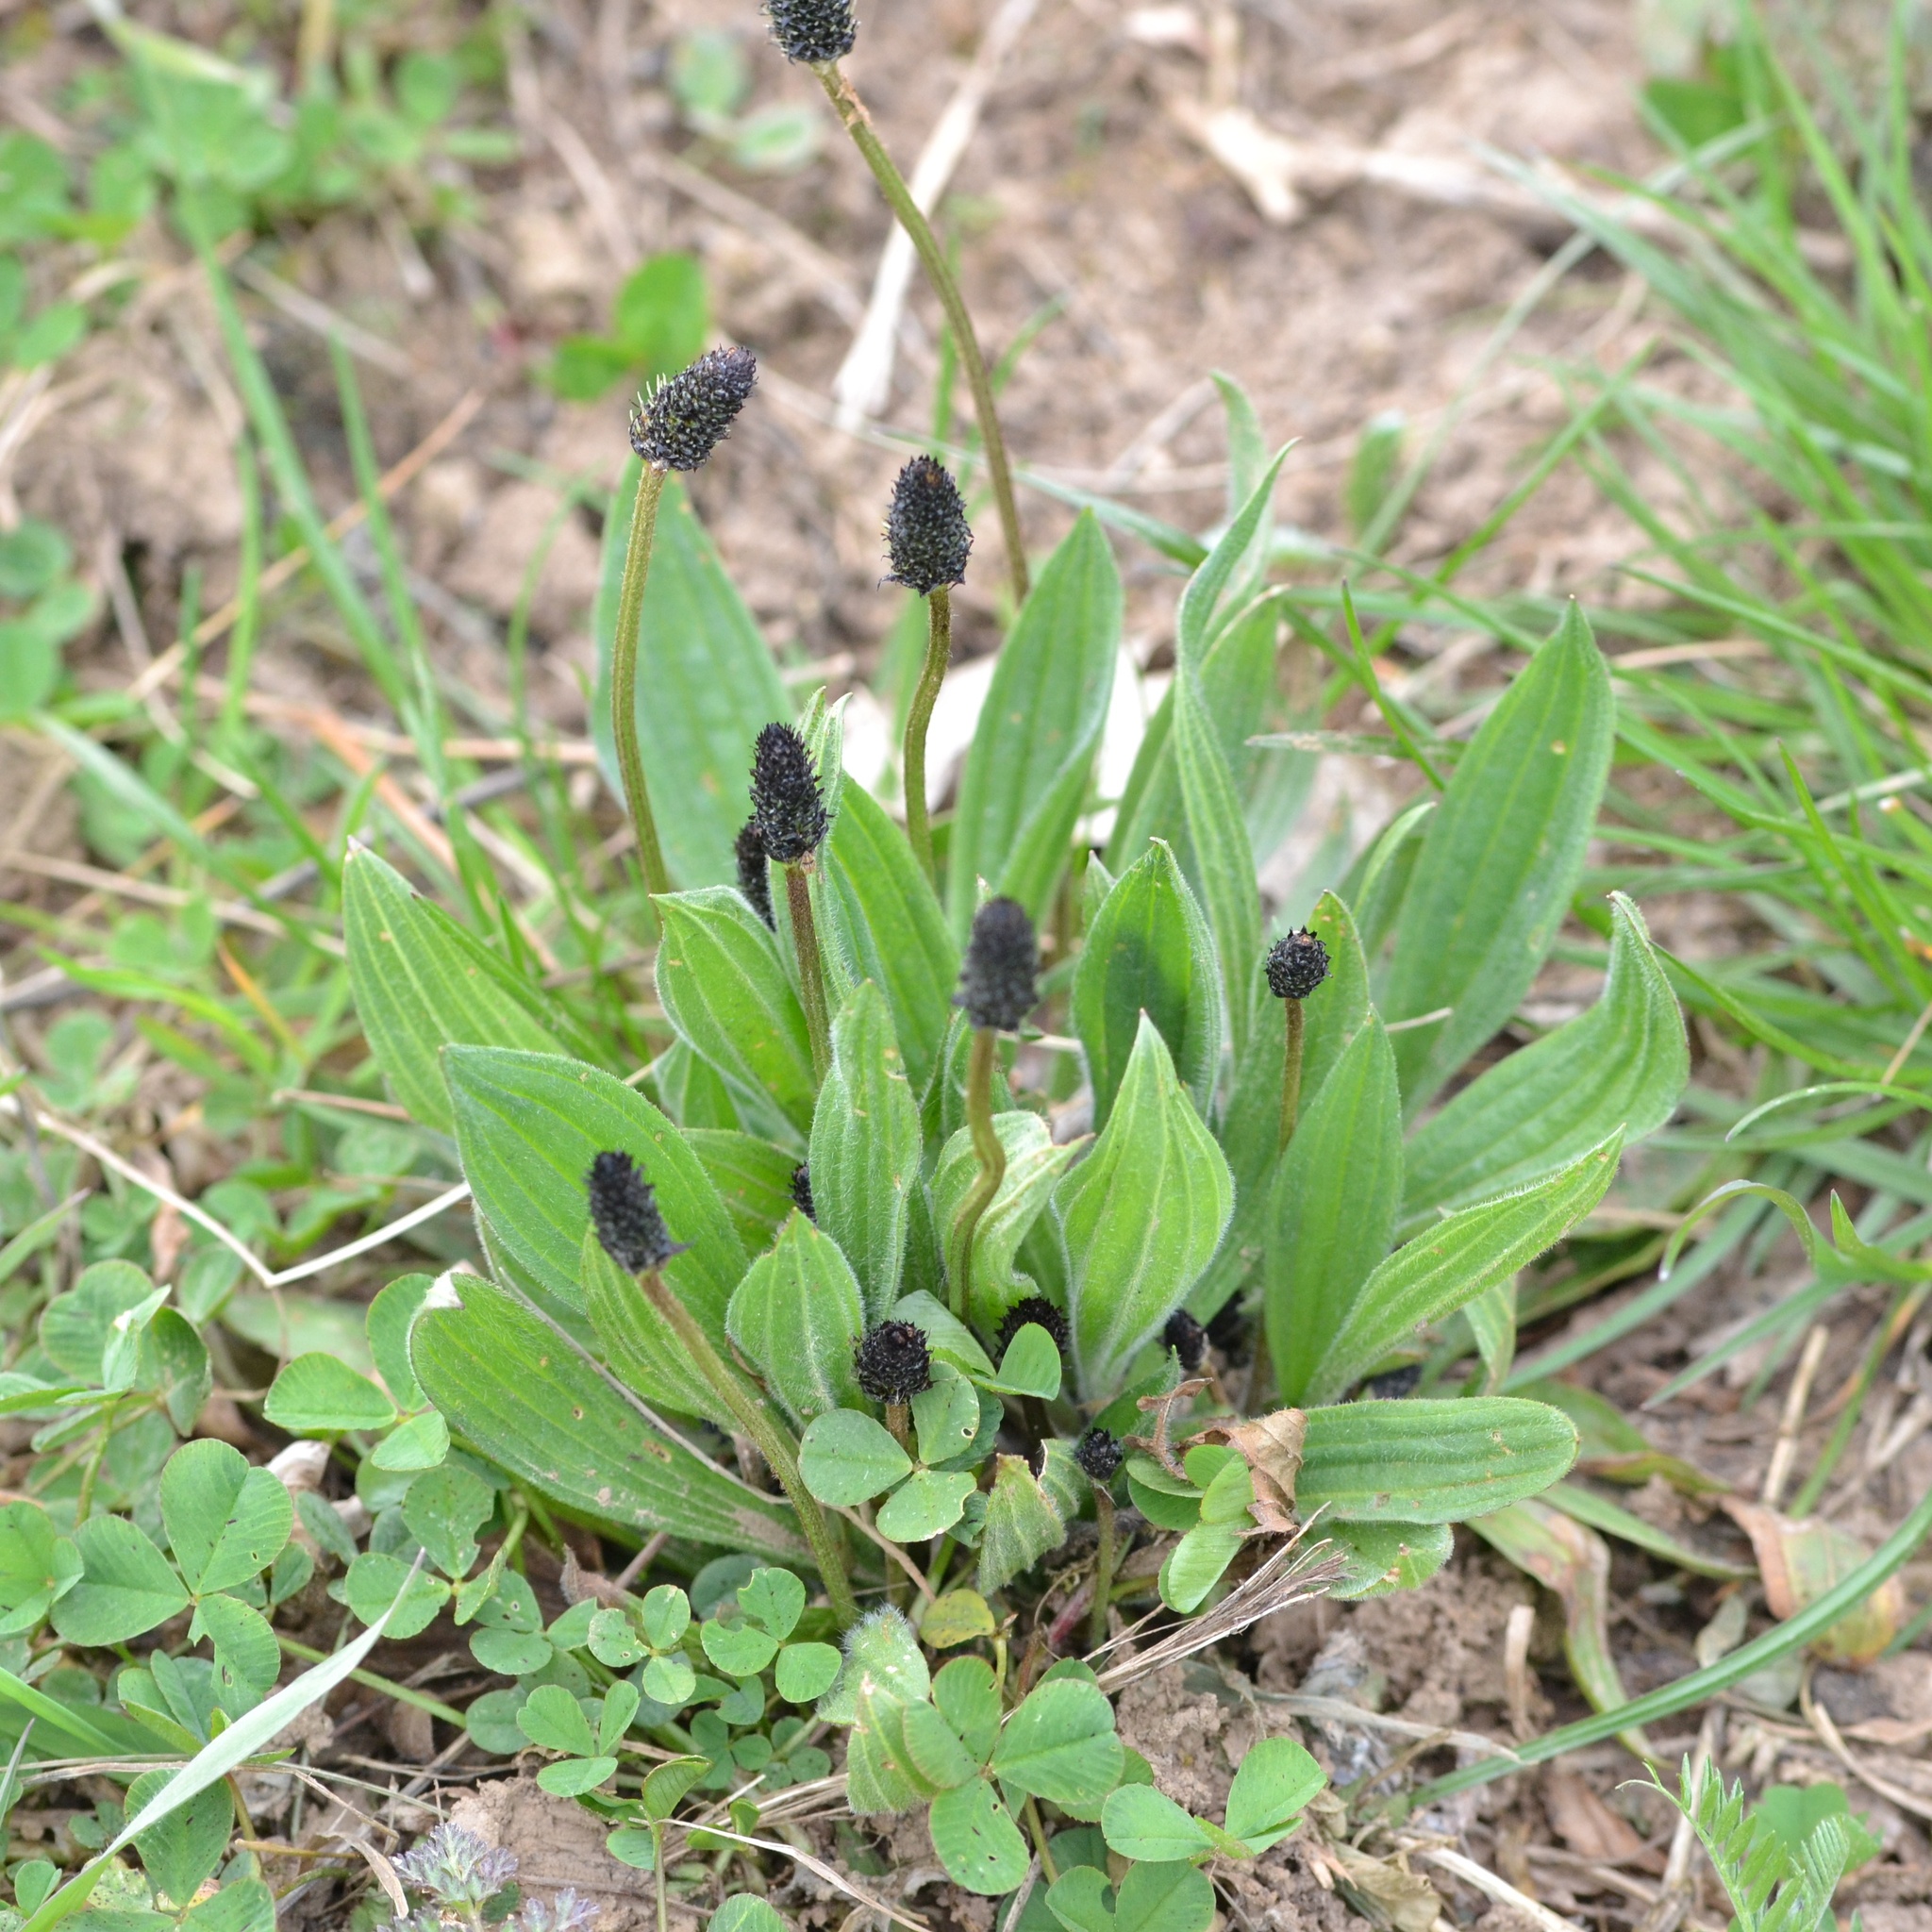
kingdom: Plantae
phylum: Tracheophyta
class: Magnoliopsida
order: Lamiales
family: Plantaginaceae
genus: Plantago
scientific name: Plantago lanceolata
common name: Ribwort plantain
